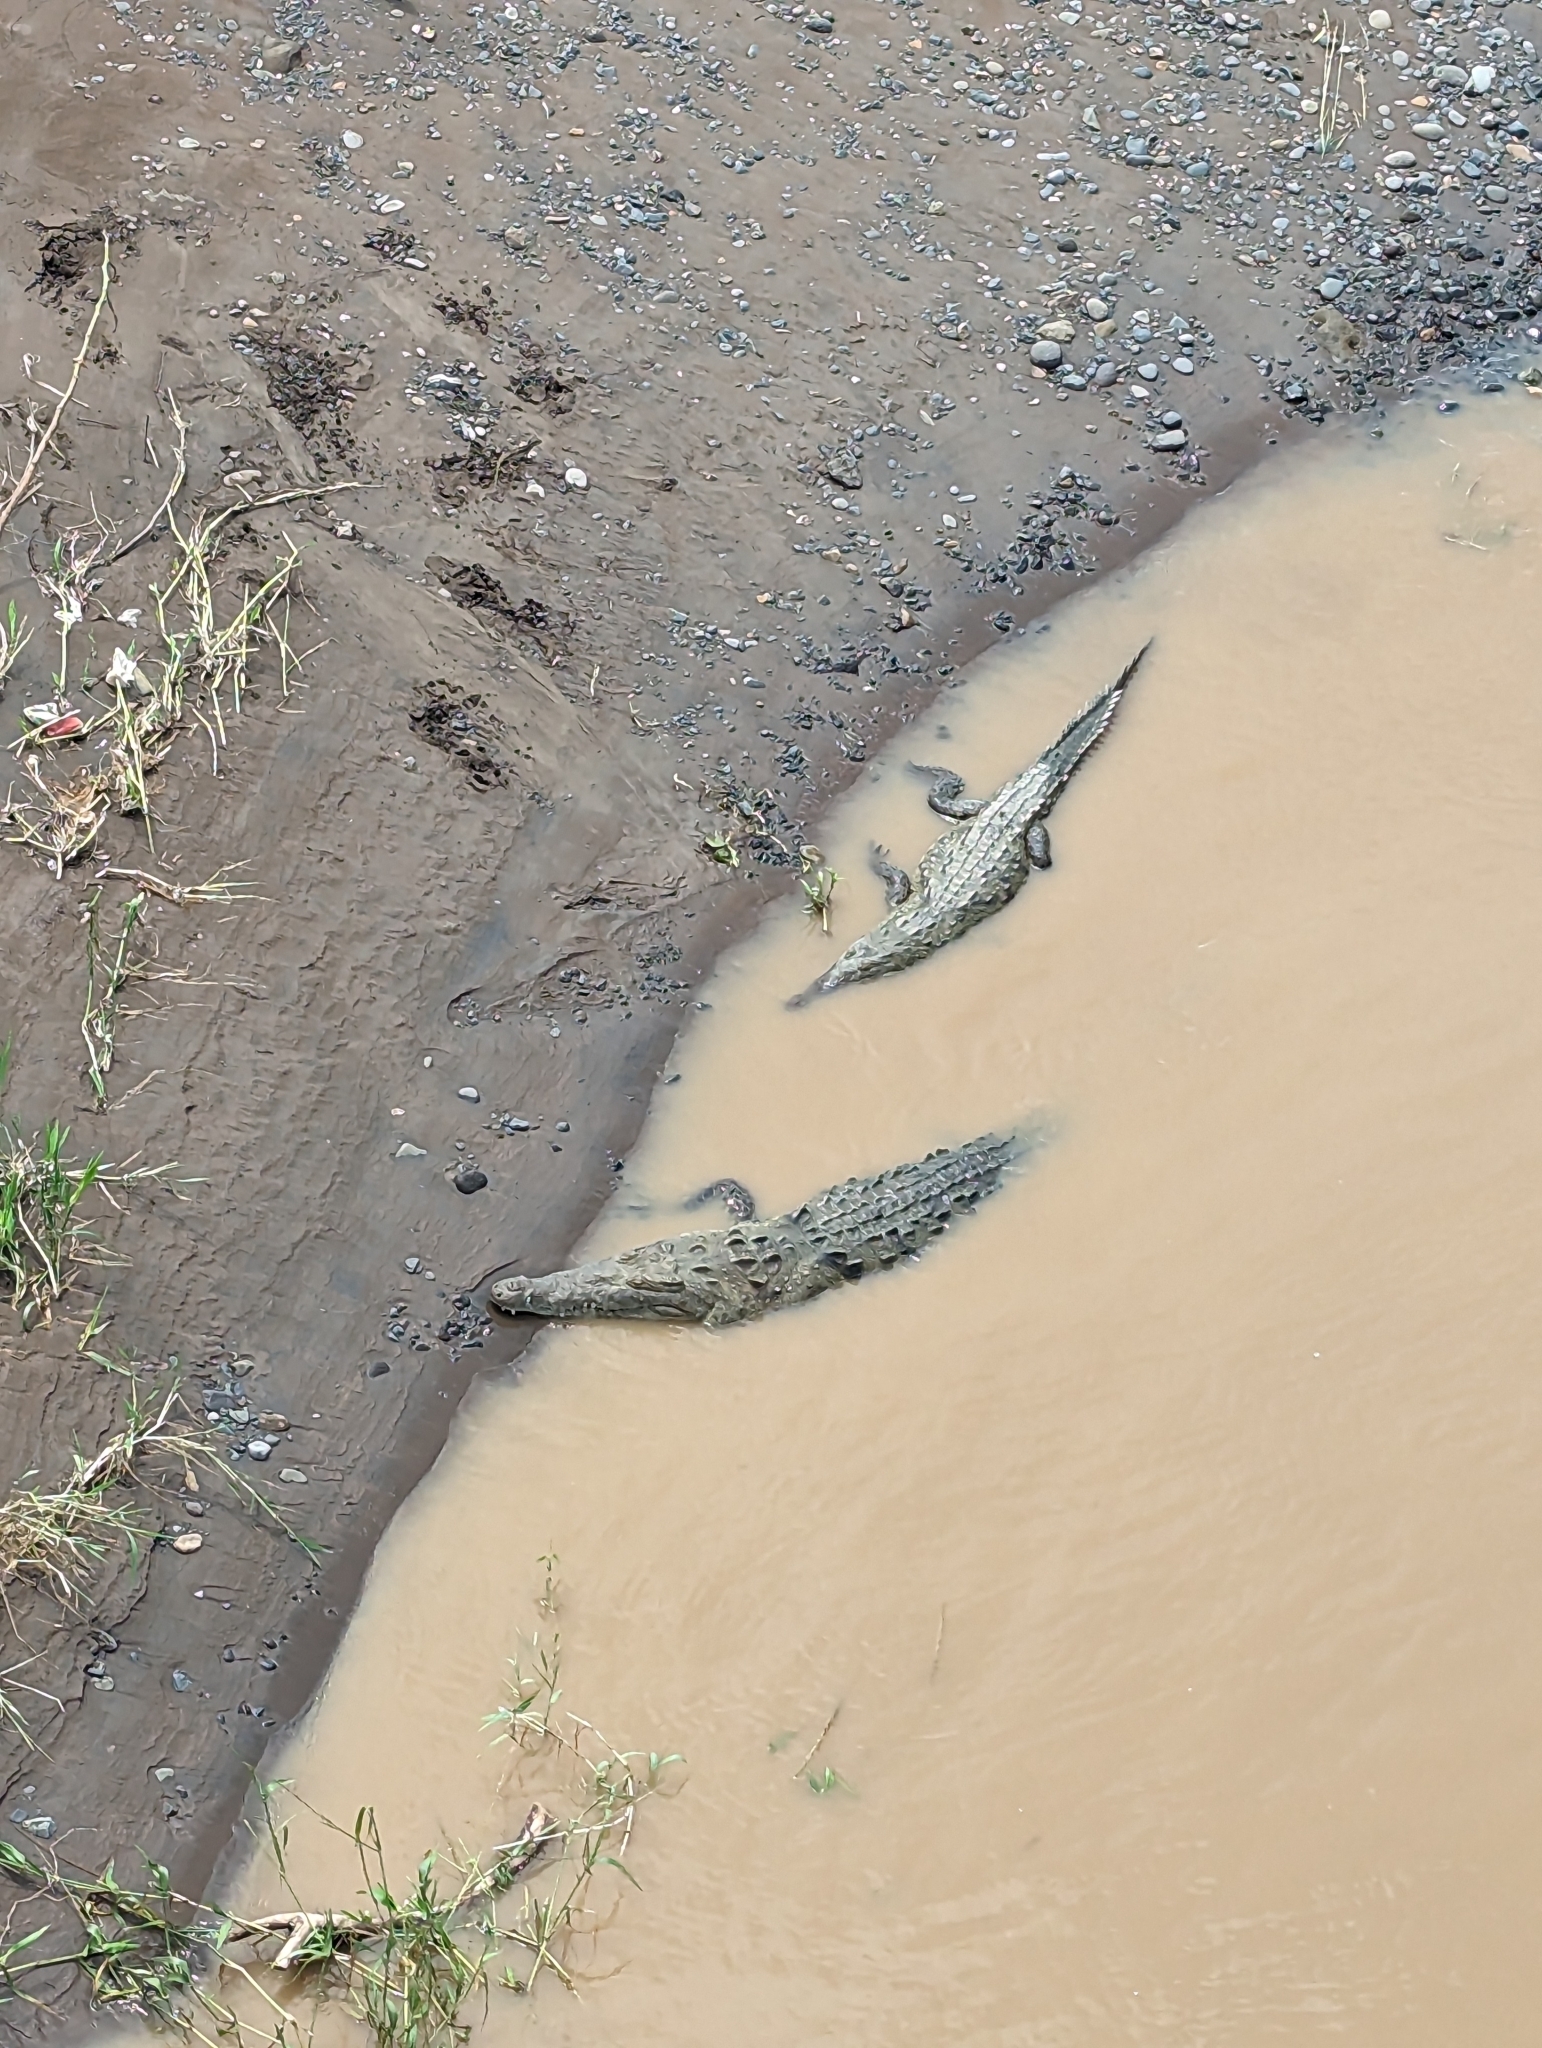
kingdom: Animalia
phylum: Chordata
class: Crocodylia
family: Crocodylidae
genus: Crocodylus
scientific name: Crocodylus acutus
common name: American crocodile
